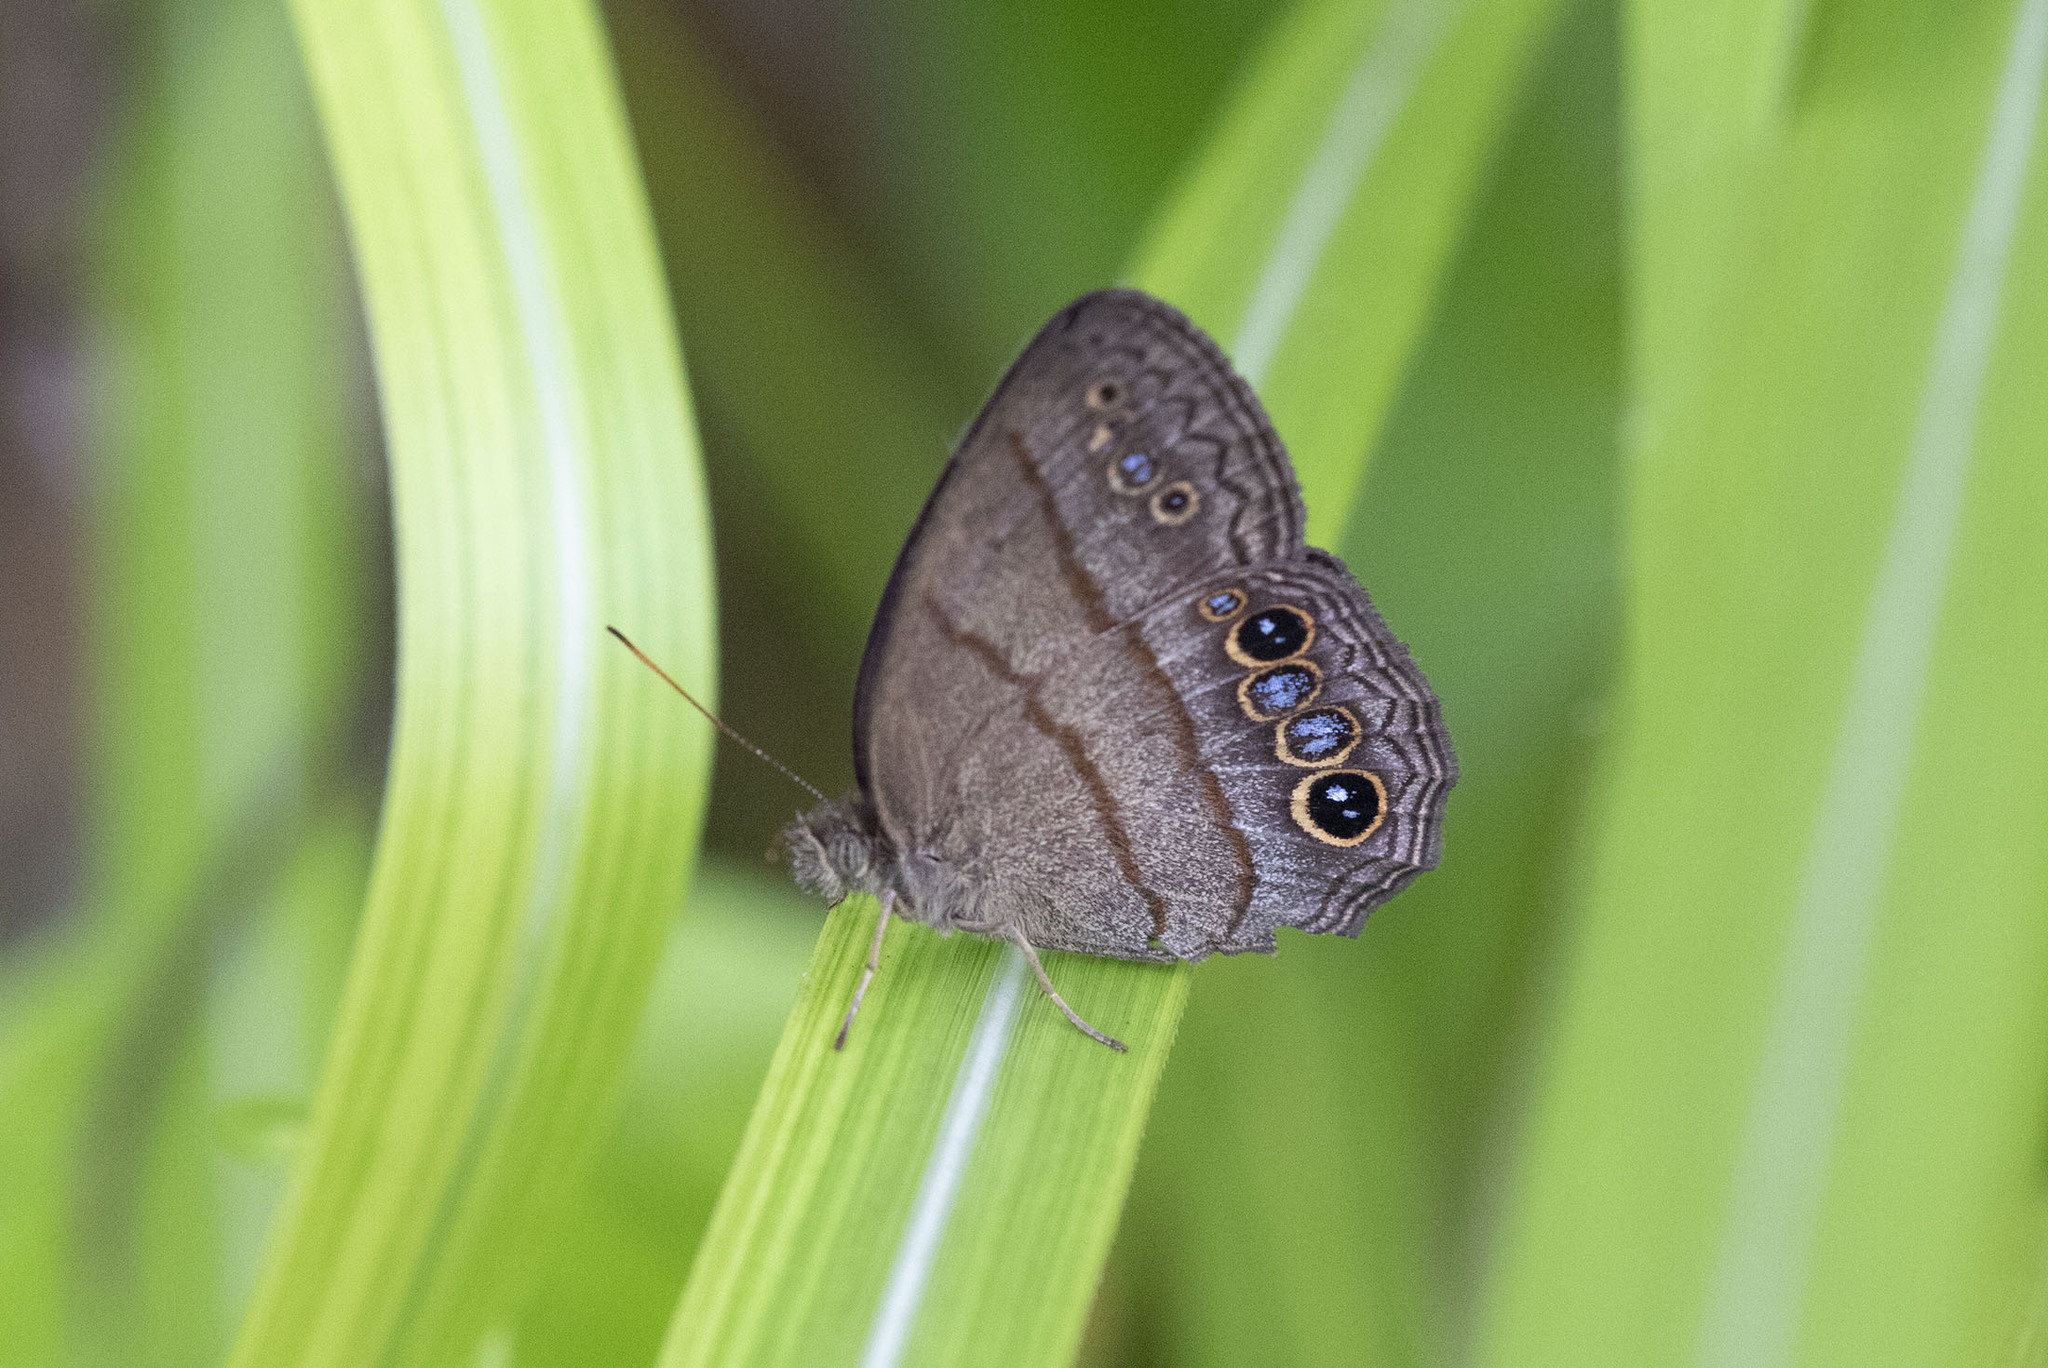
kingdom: Animalia
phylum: Arthropoda
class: Insecta
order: Lepidoptera
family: Nymphalidae
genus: Malaveria
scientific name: Malaveria
